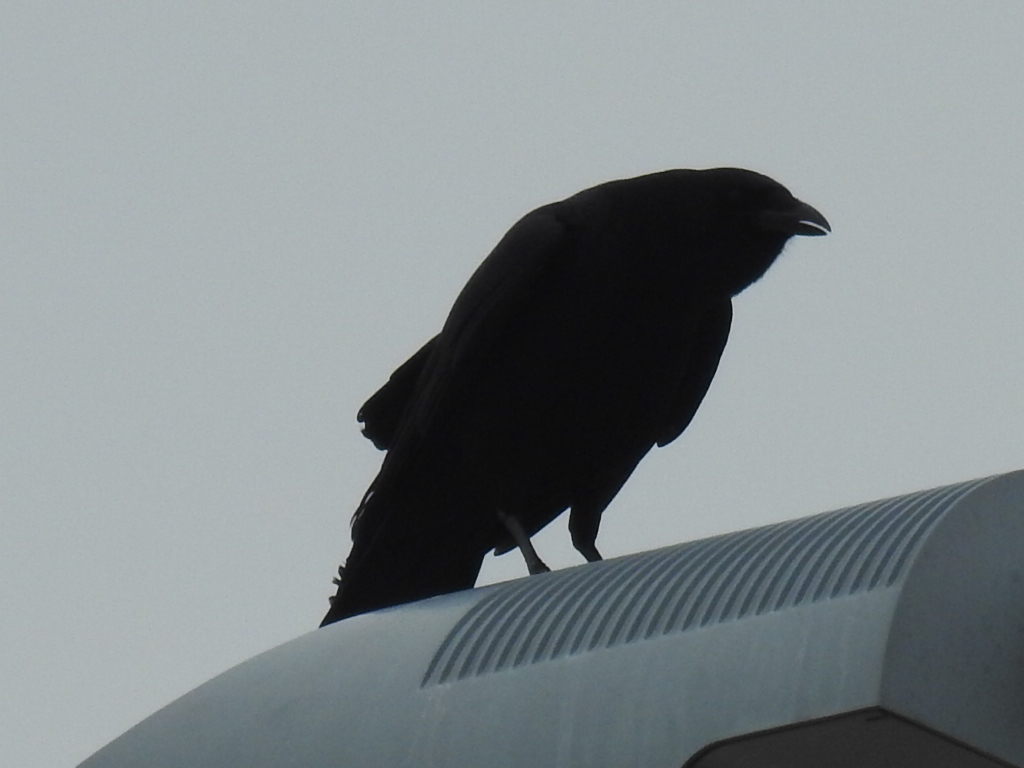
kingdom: Animalia
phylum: Chordata
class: Aves
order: Passeriformes
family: Corvidae
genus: Corvus
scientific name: Corvus brachyrhynchos
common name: American crow
